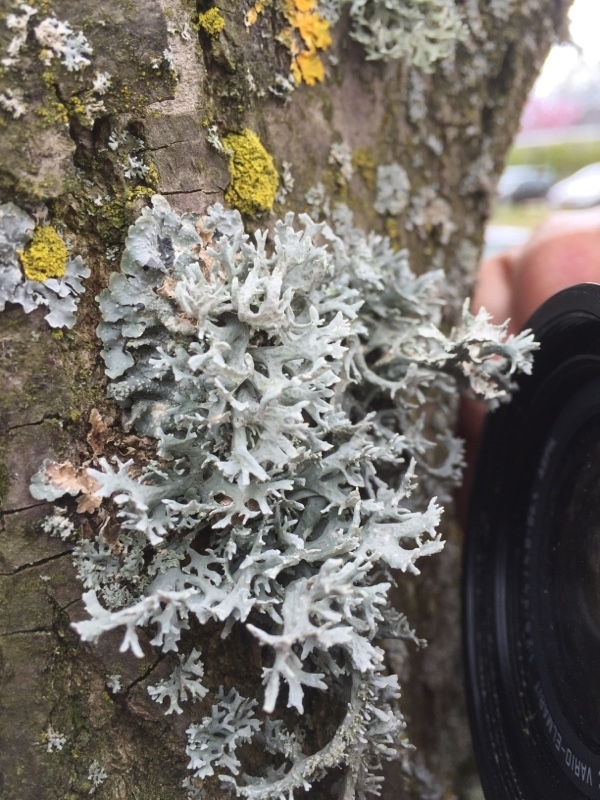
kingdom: Fungi
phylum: Ascomycota
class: Lecanoromycetes
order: Lecanorales
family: Parmeliaceae
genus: Evernia
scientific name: Evernia prunastri
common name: Oak moss
